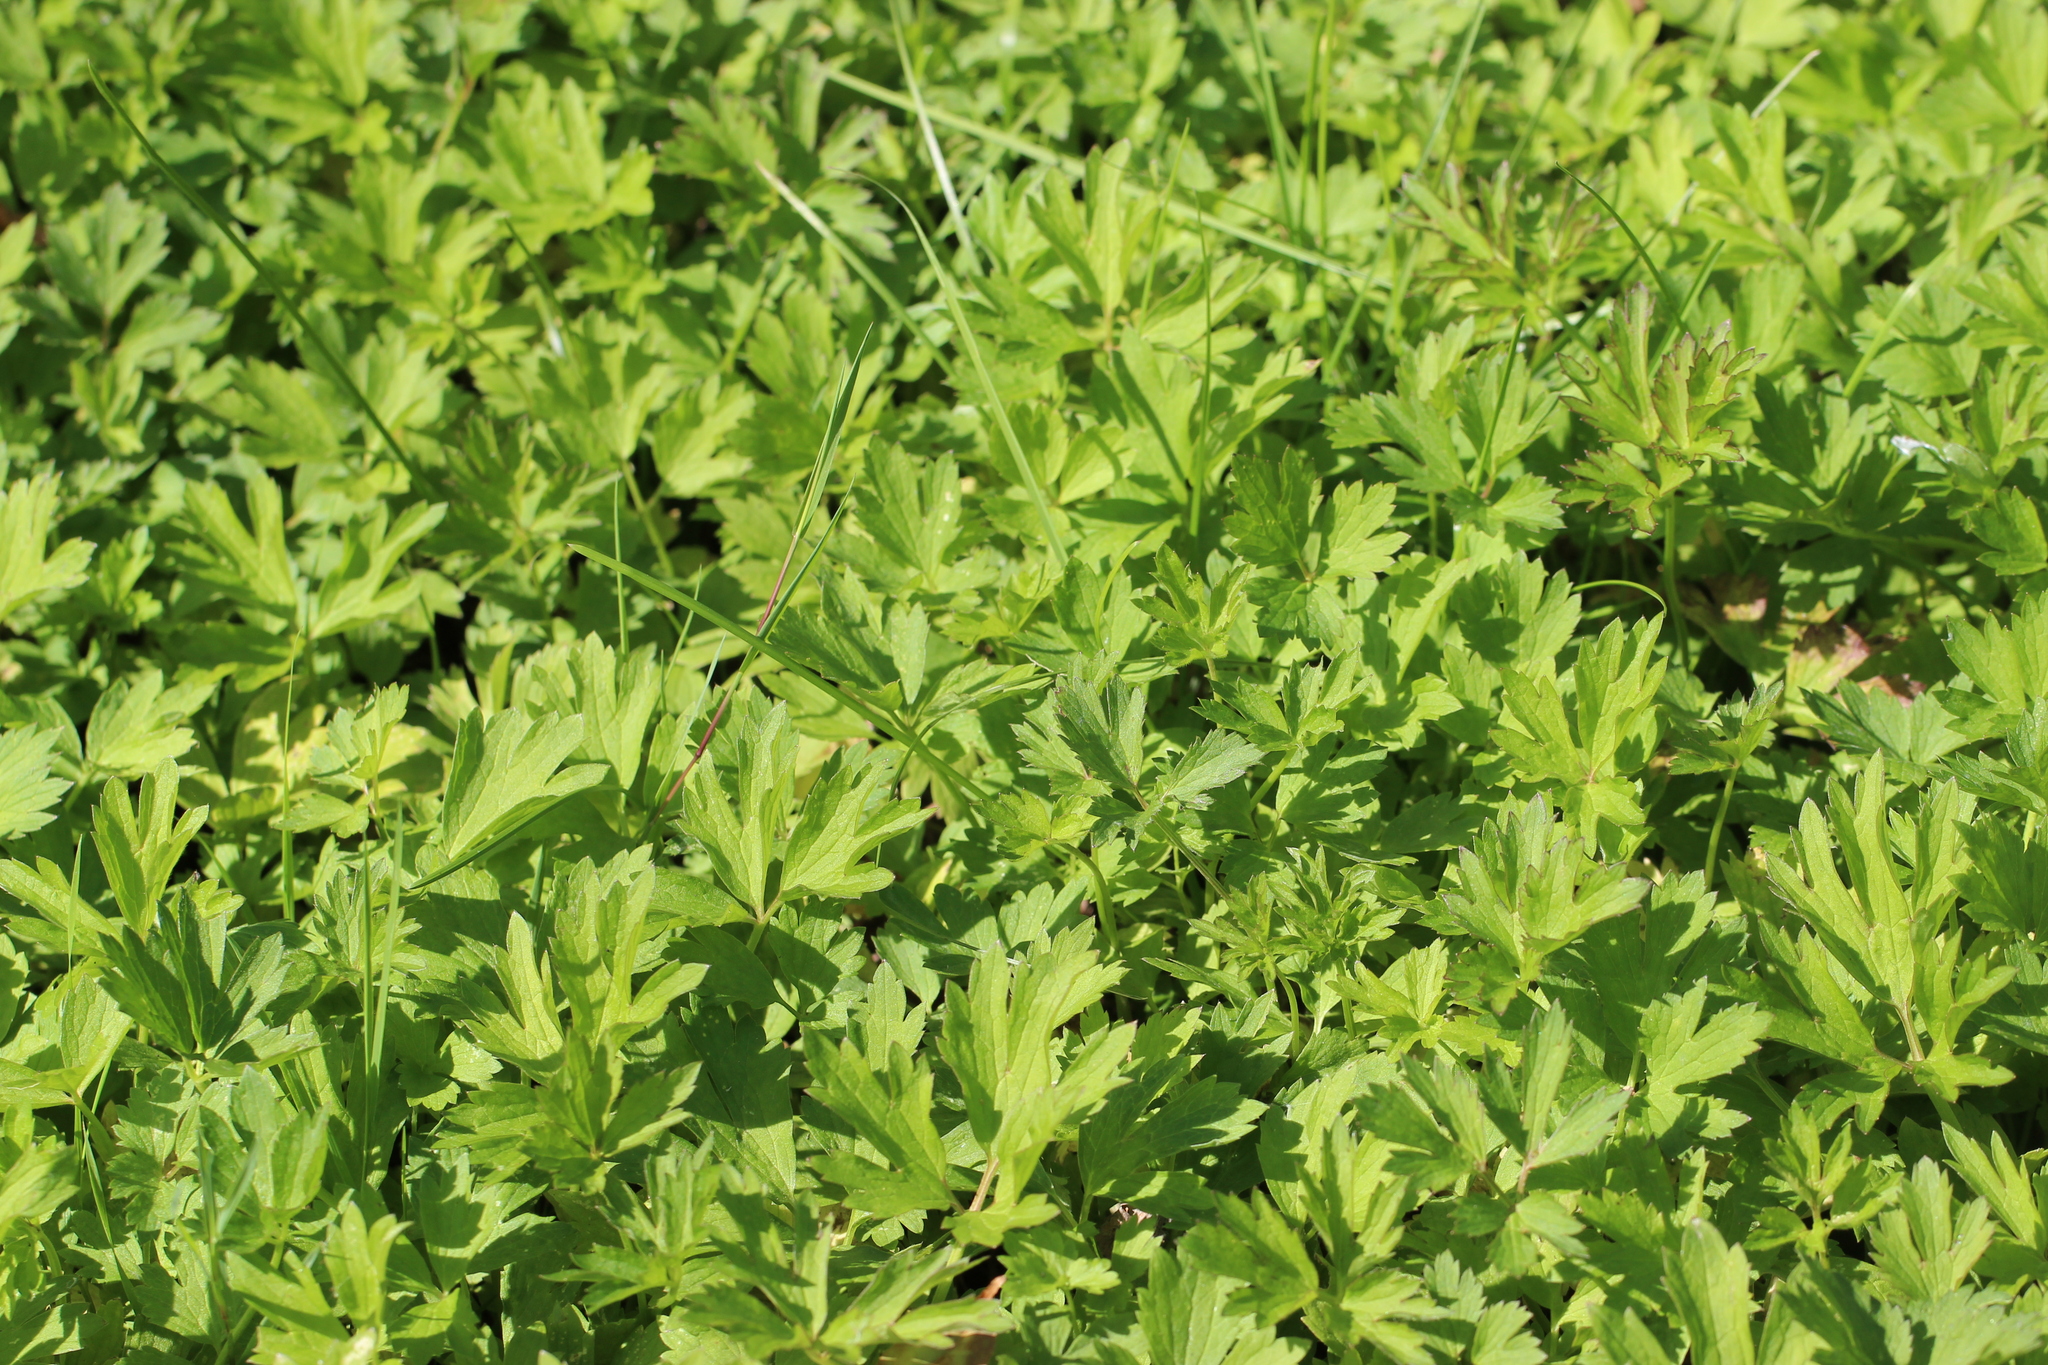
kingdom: Plantae
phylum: Tracheophyta
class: Magnoliopsida
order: Ranunculales
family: Ranunculaceae
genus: Ranunculus
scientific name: Ranunculus repens
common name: Creeping buttercup
